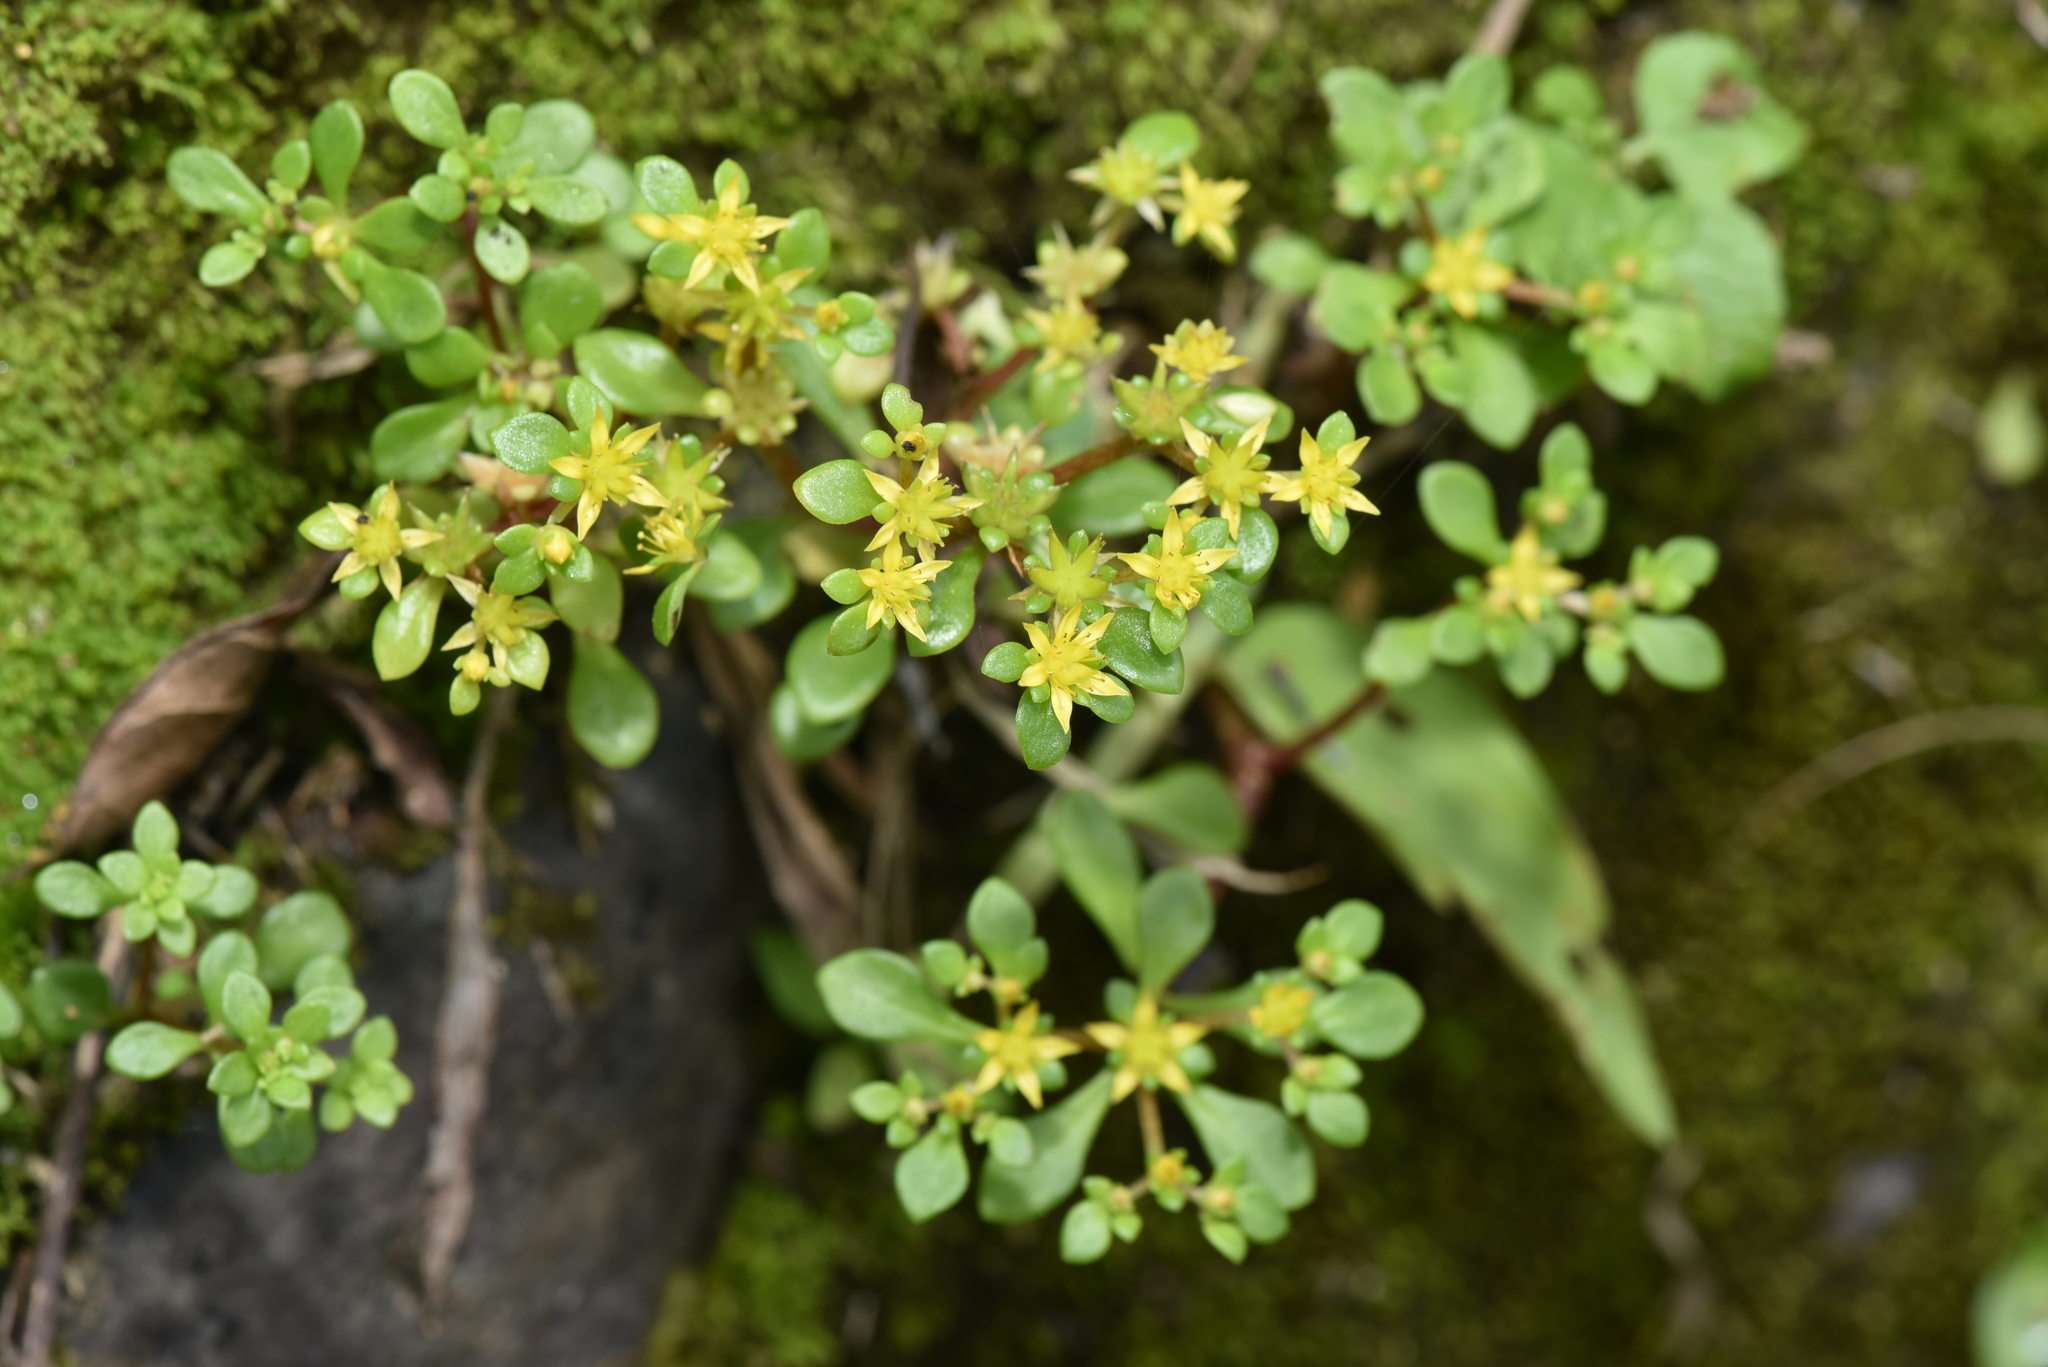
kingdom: Plantae
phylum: Tracheophyta
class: Magnoliopsida
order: Saxifragales
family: Crassulaceae
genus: Sedum
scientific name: Sedum actinocarpum
